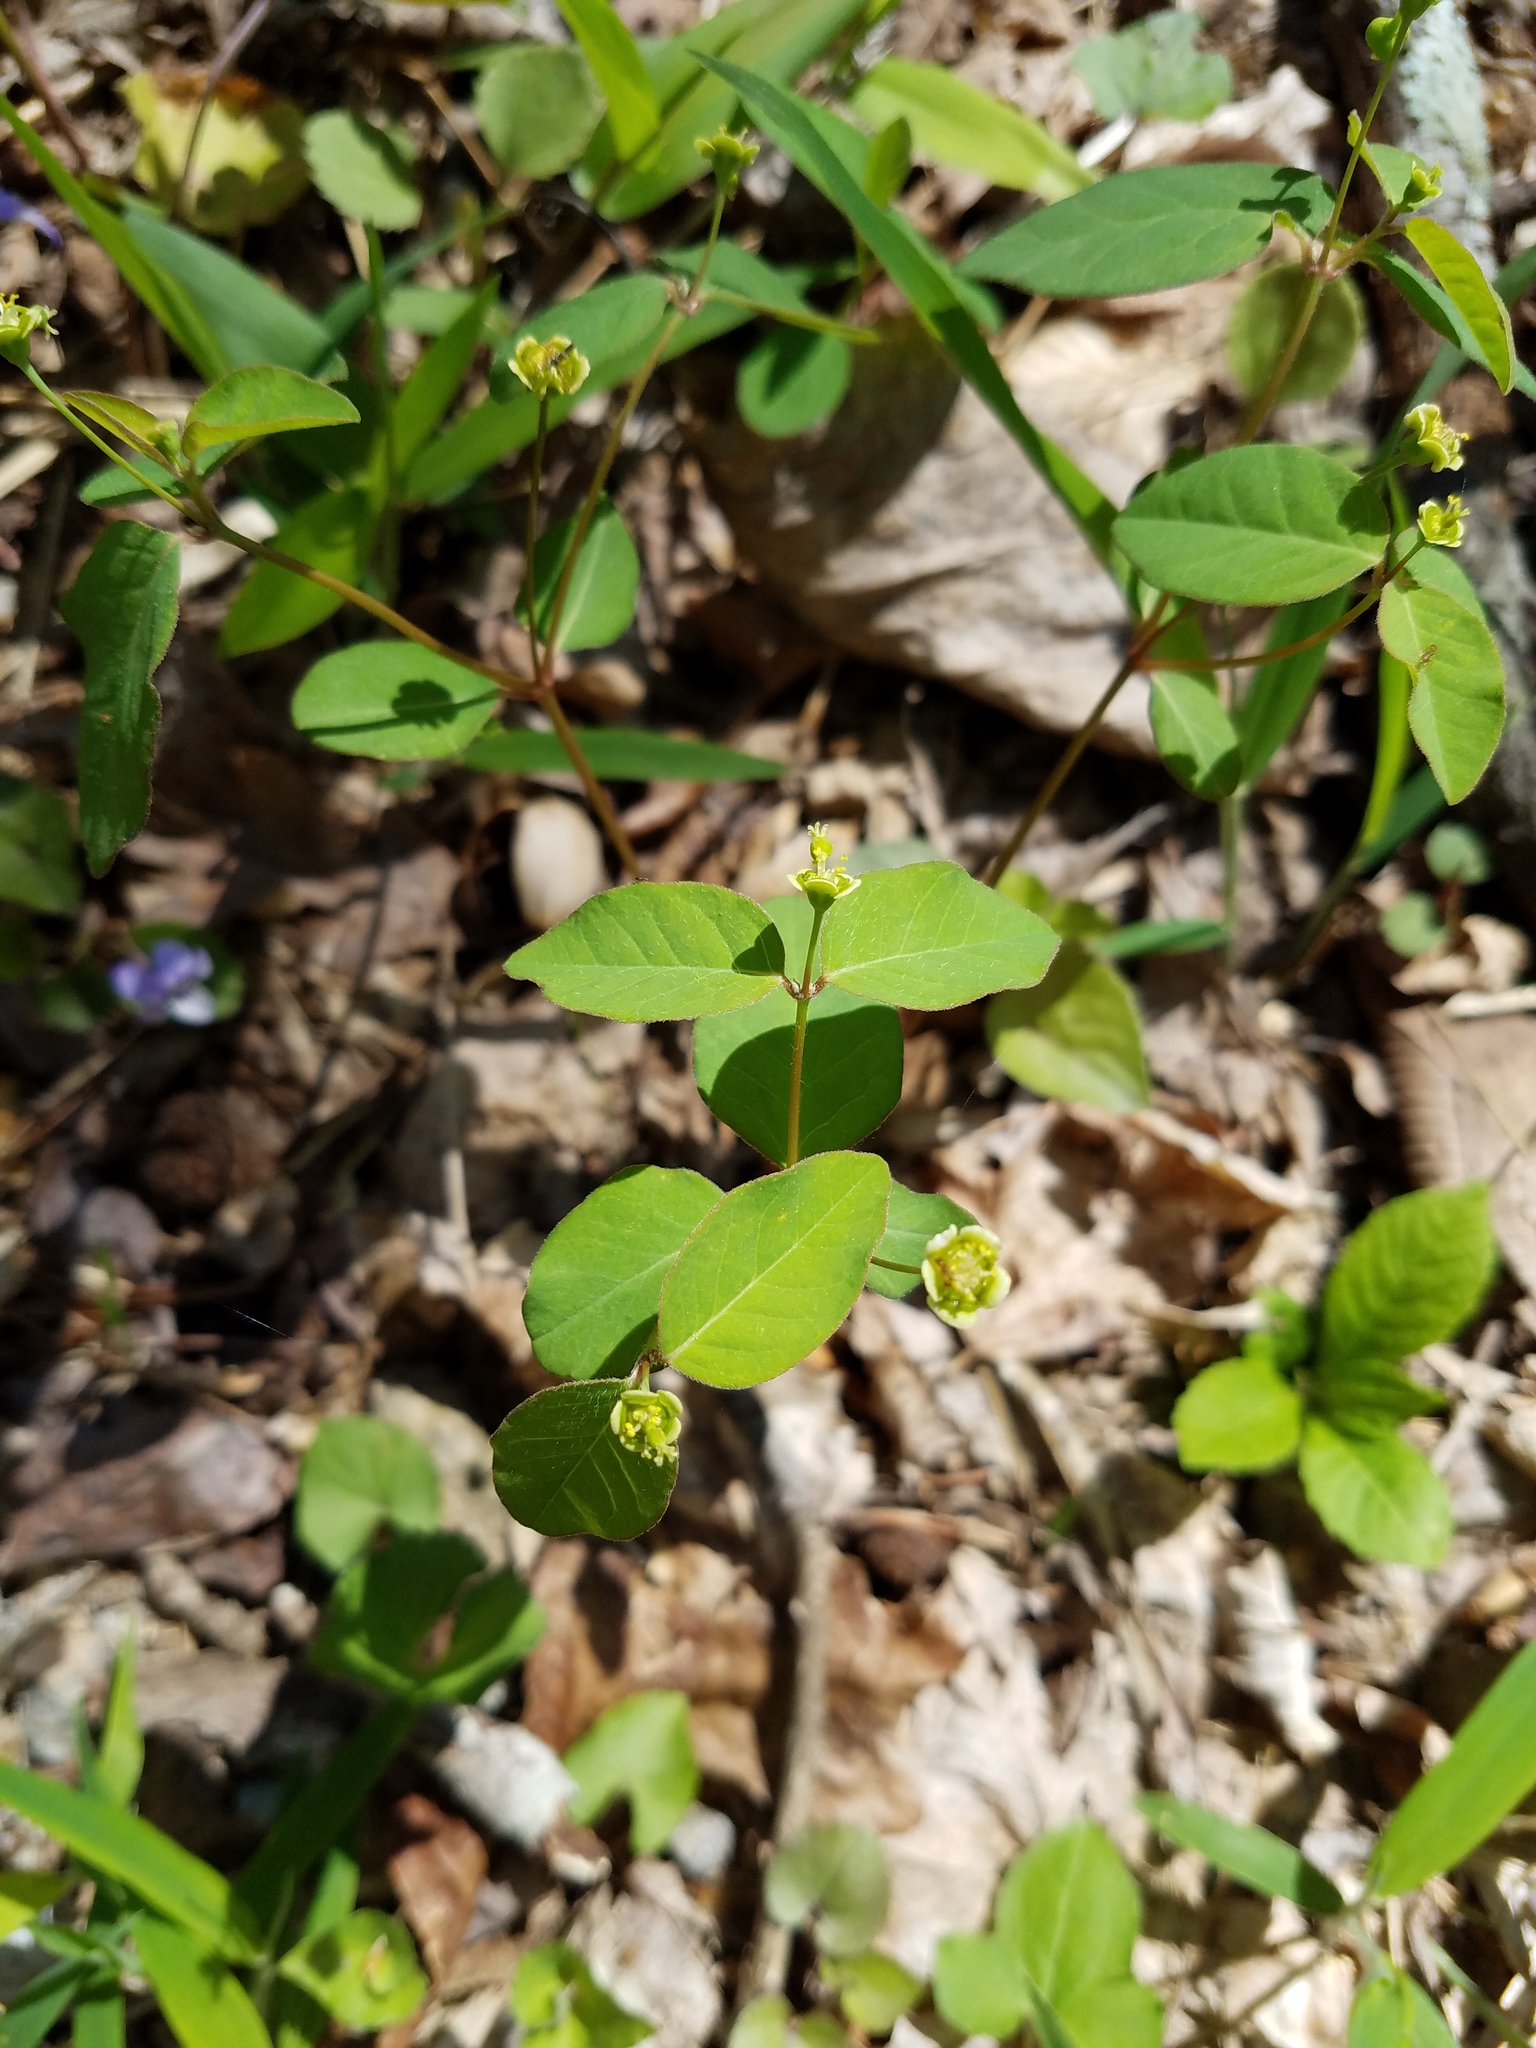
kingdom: Plantae
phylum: Tracheophyta
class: Magnoliopsida
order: Malpighiales
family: Euphorbiaceae
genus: Euphorbia
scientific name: Euphorbia mercurialina
